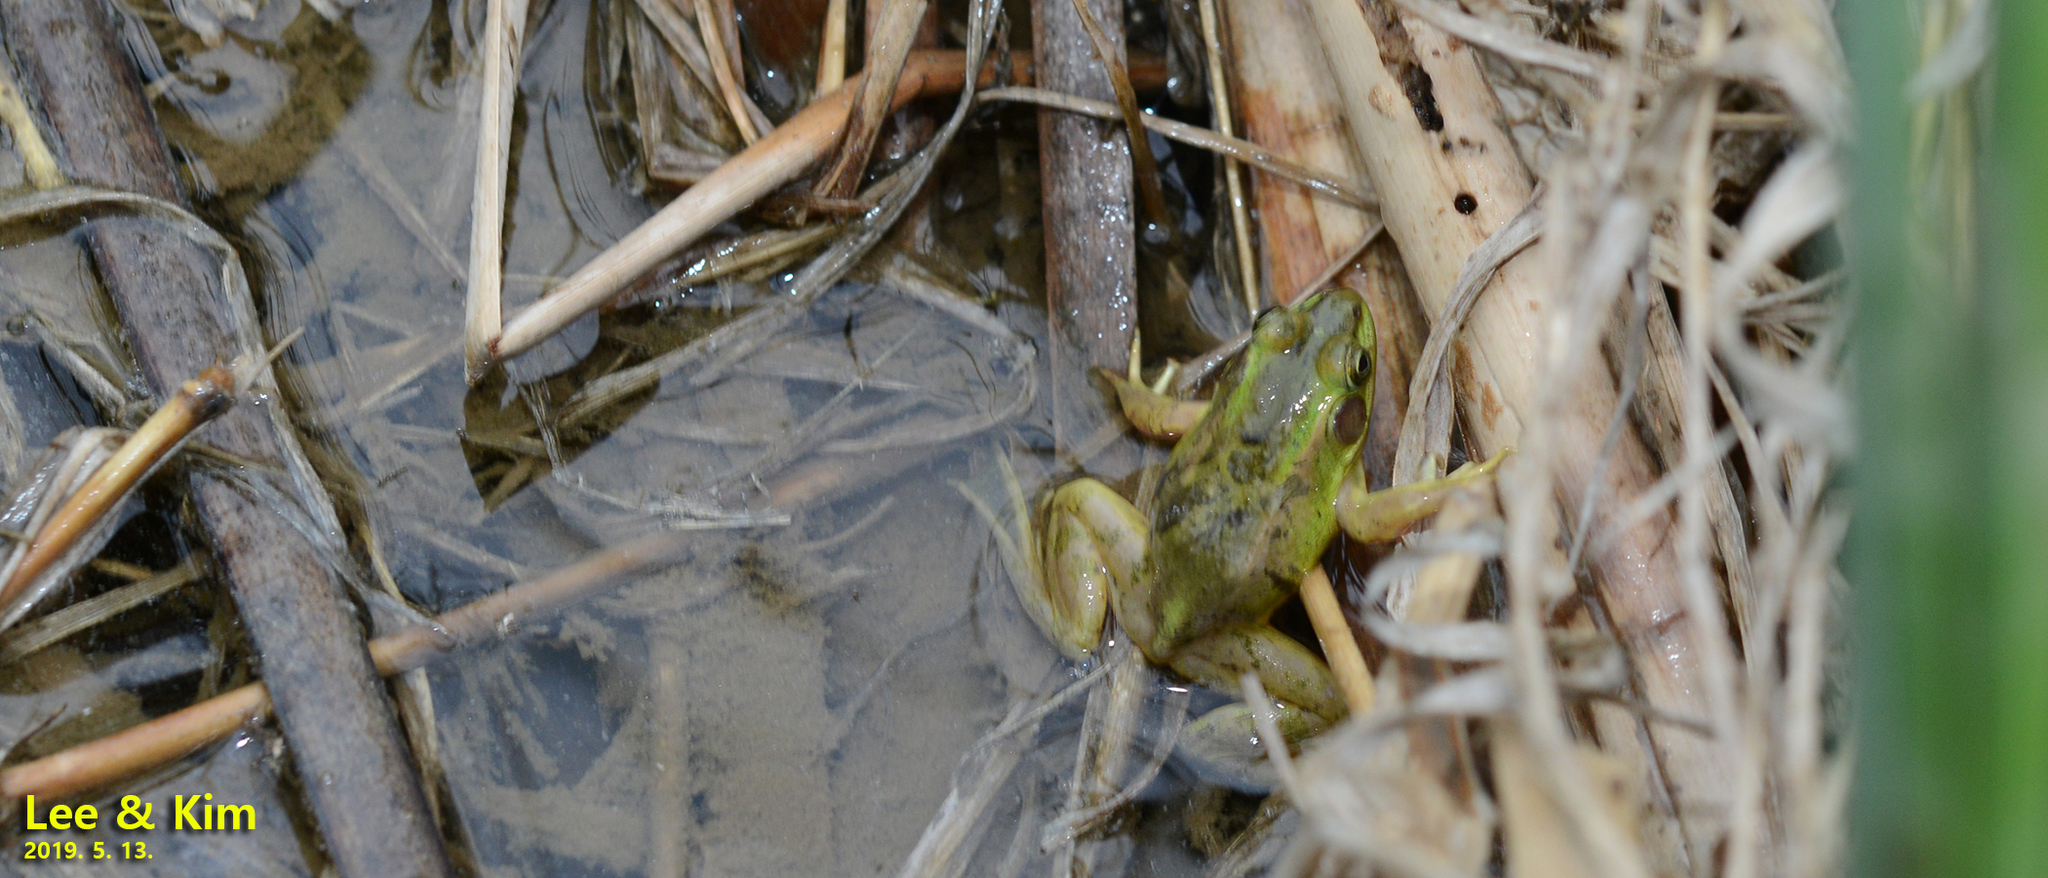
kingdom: Animalia
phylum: Chordata
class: Amphibia
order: Anura
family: Ranidae
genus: Pelophylax
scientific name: Pelophylax chosenicus
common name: Gold-spotted pond frog
